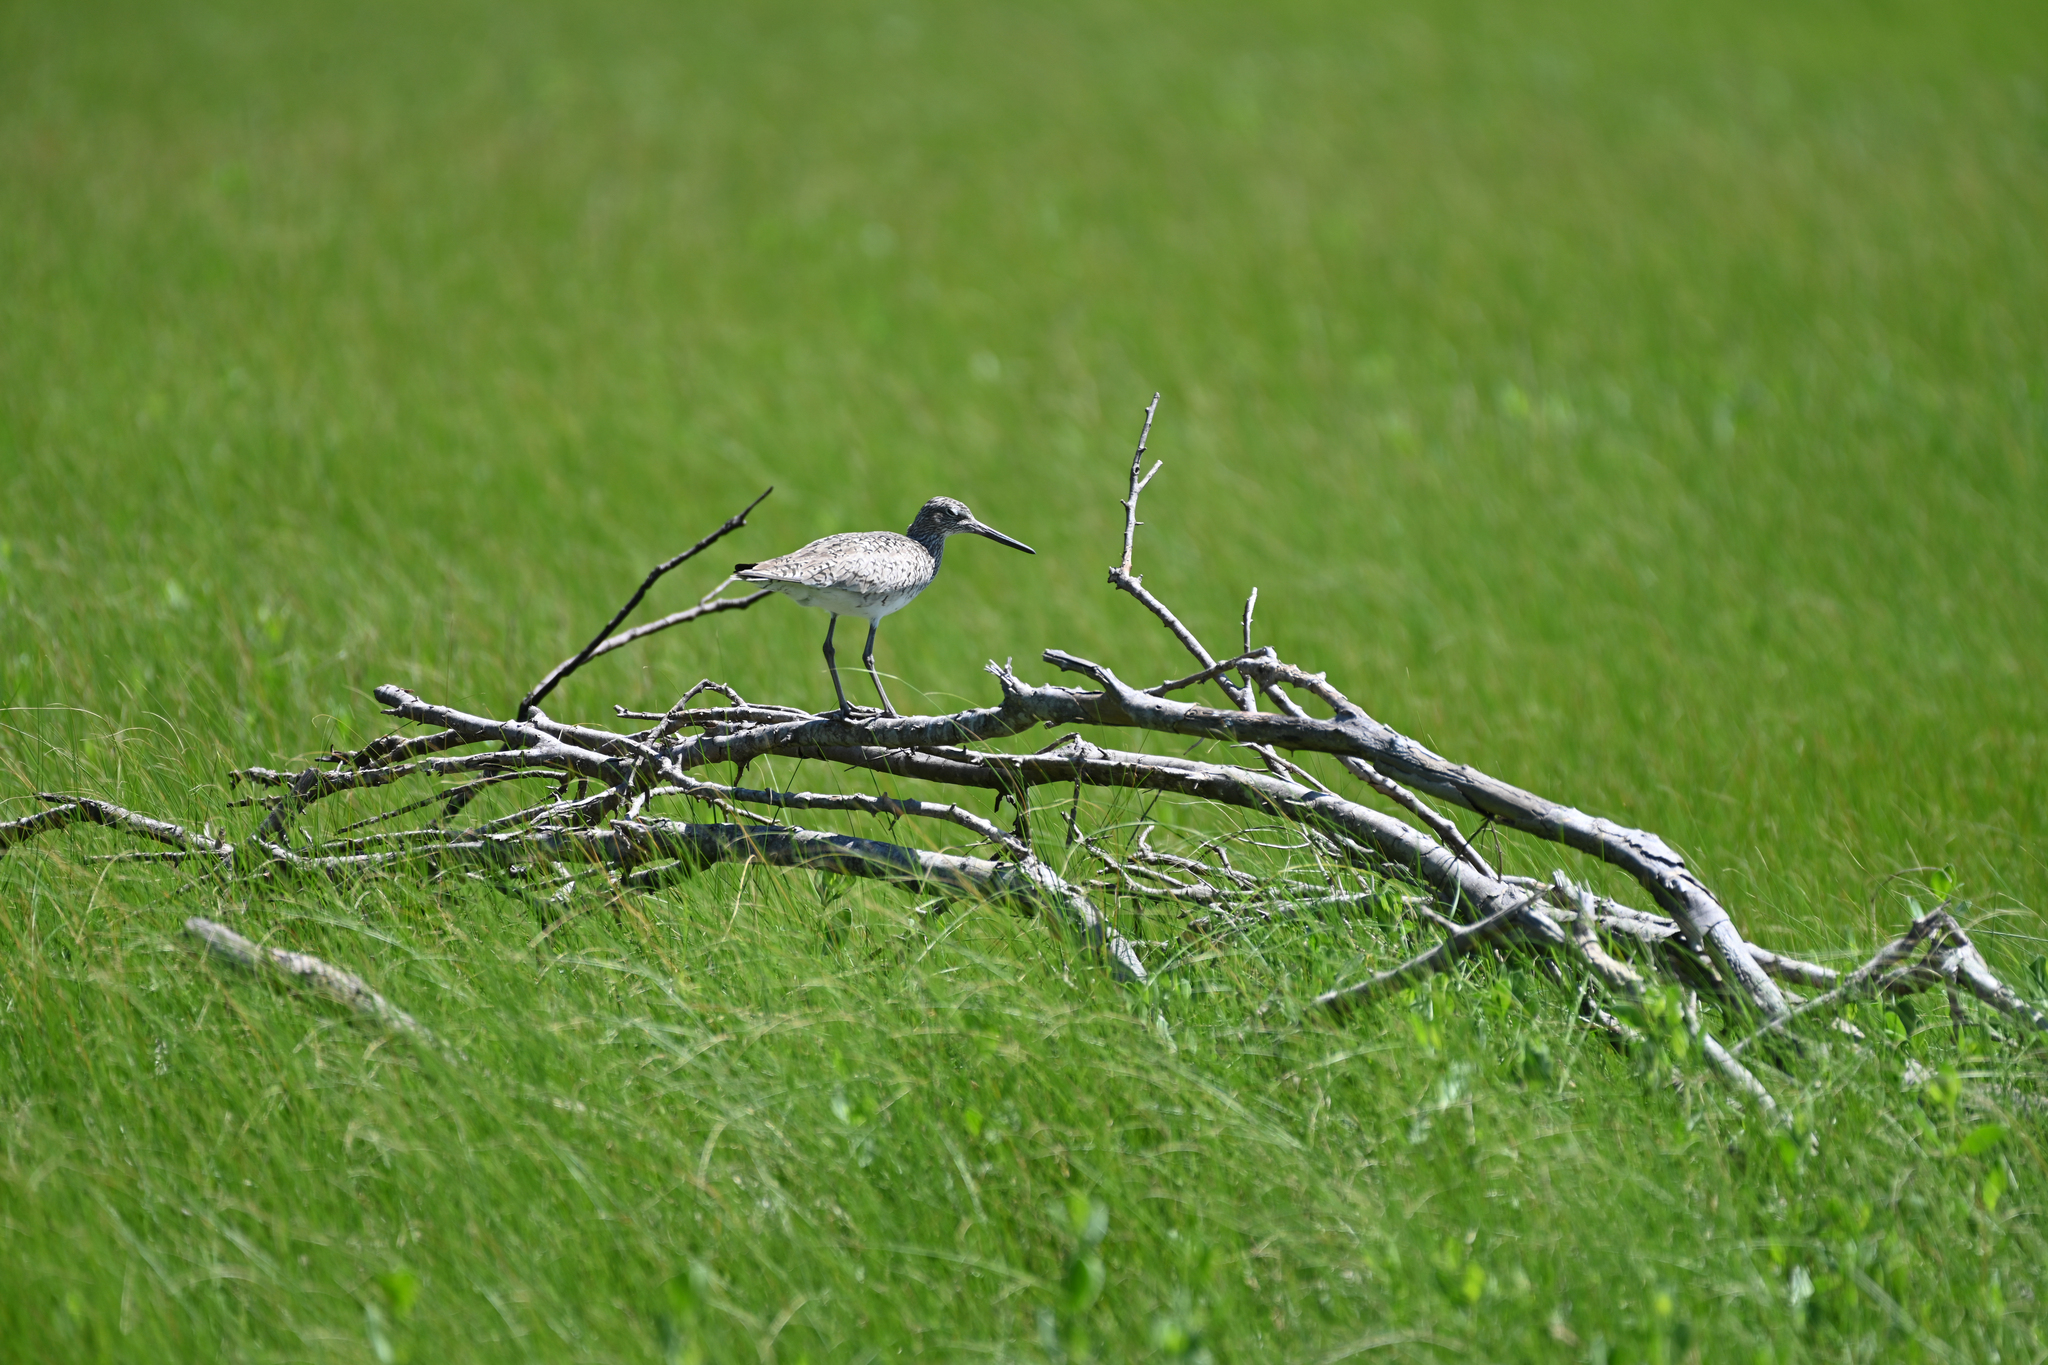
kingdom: Animalia
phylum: Chordata
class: Aves
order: Charadriiformes
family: Scolopacidae
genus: Tringa
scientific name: Tringa semipalmata
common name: Willet
